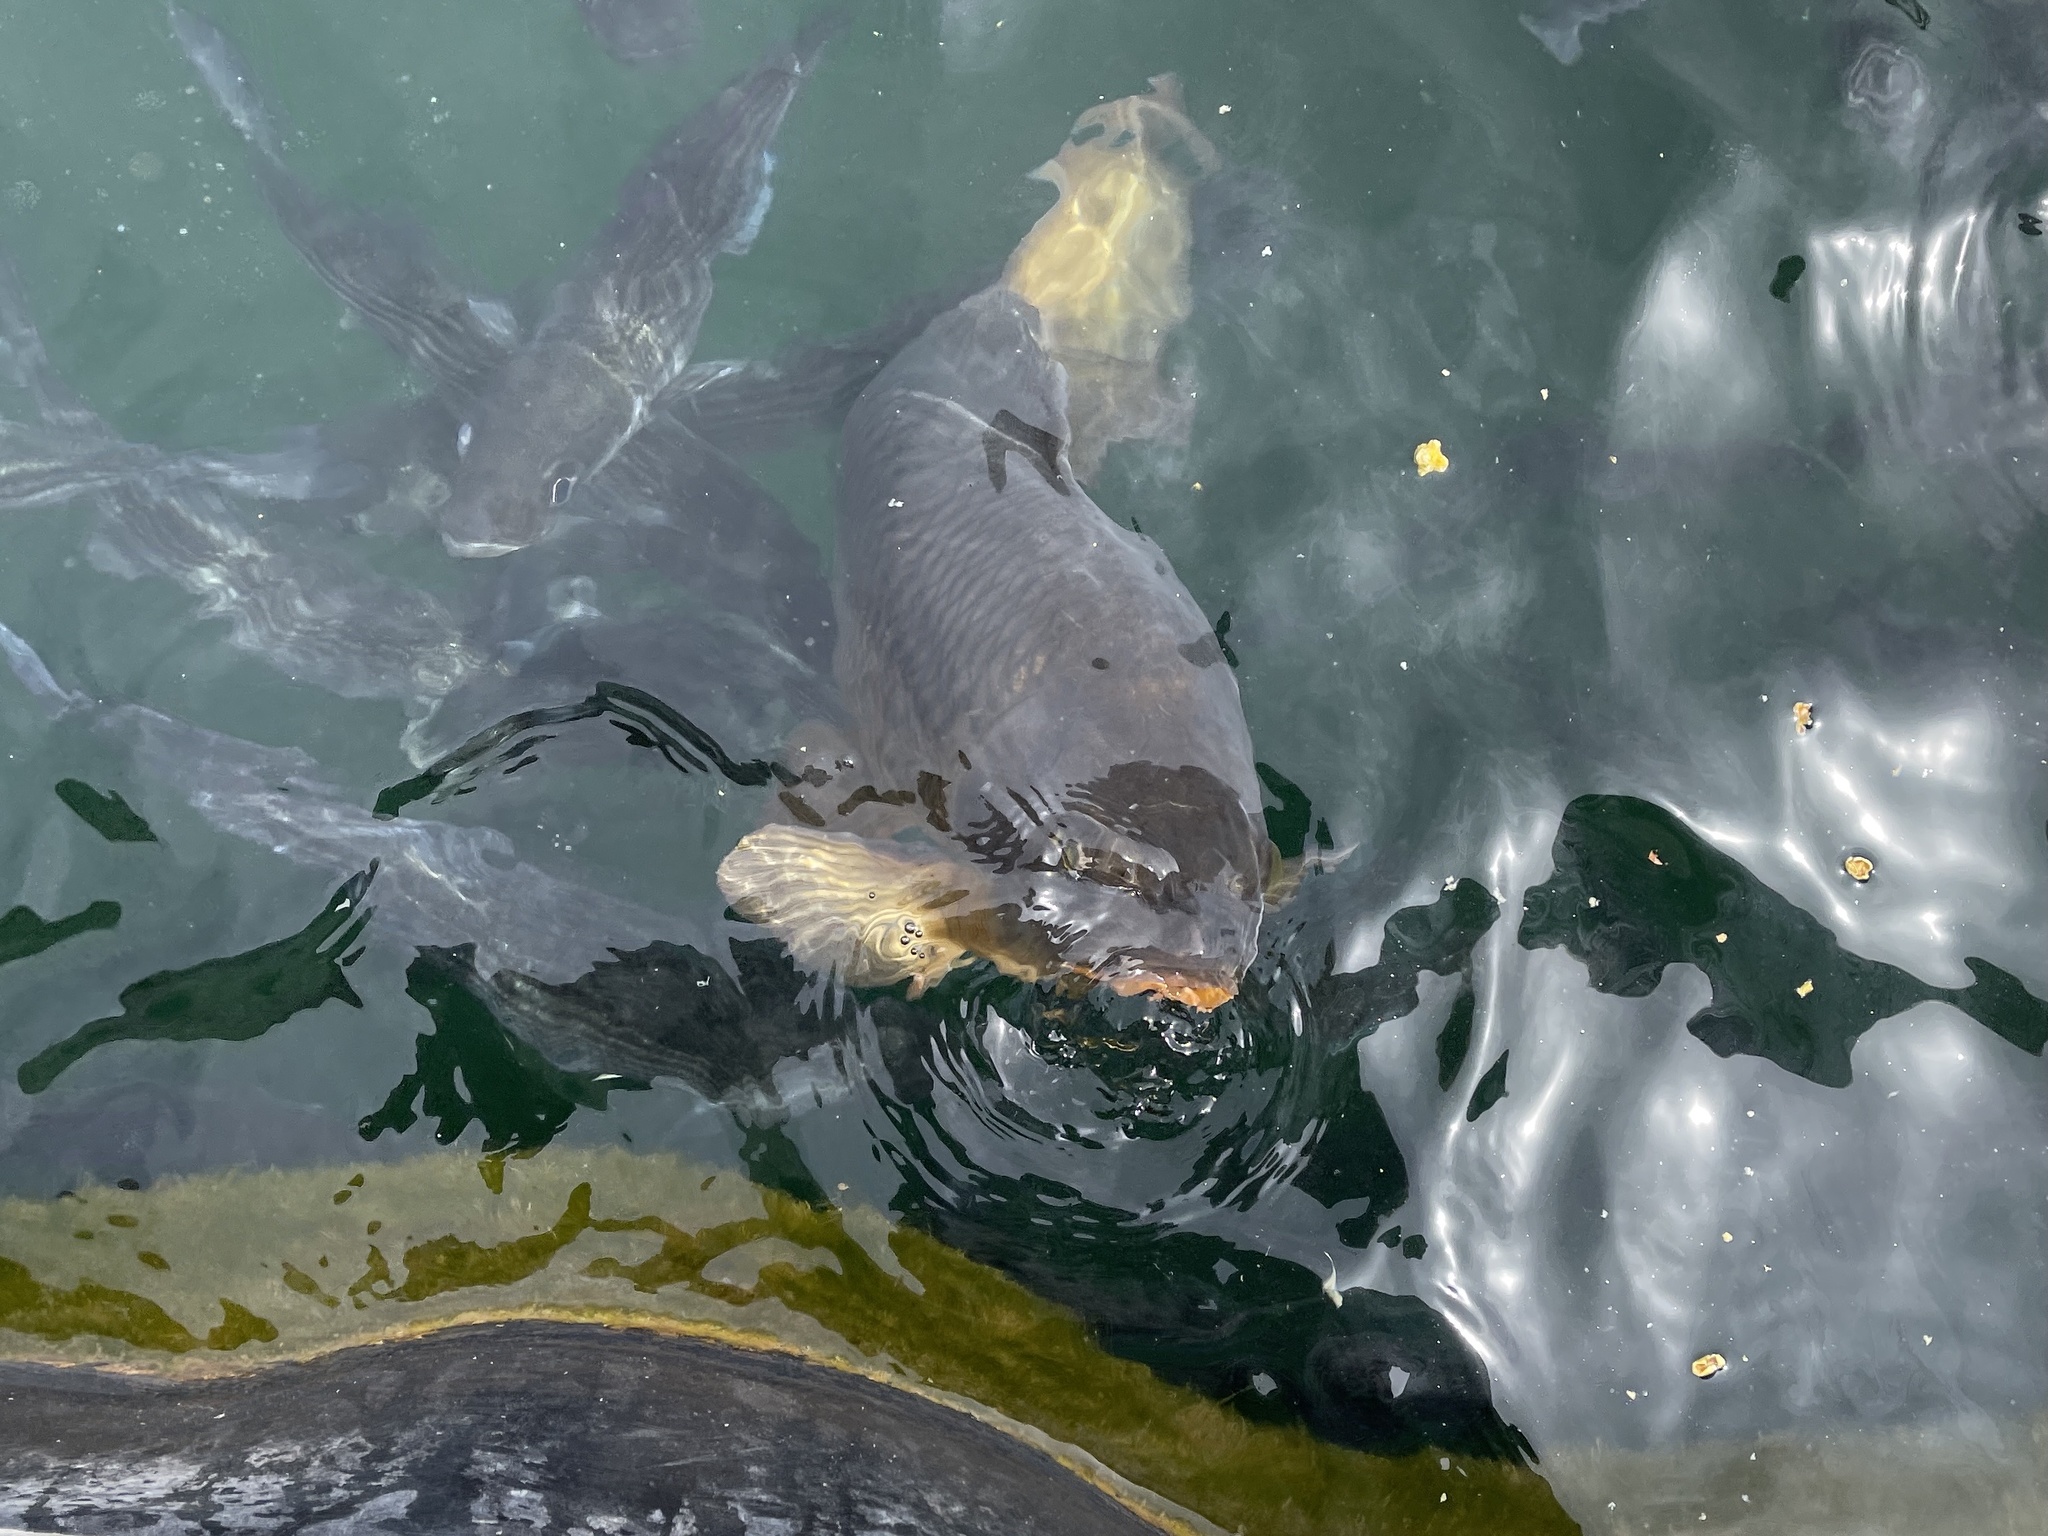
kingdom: Animalia
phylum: Chordata
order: Cypriniformes
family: Cyprinidae
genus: Cyprinus
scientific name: Cyprinus carpio
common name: Common carp
